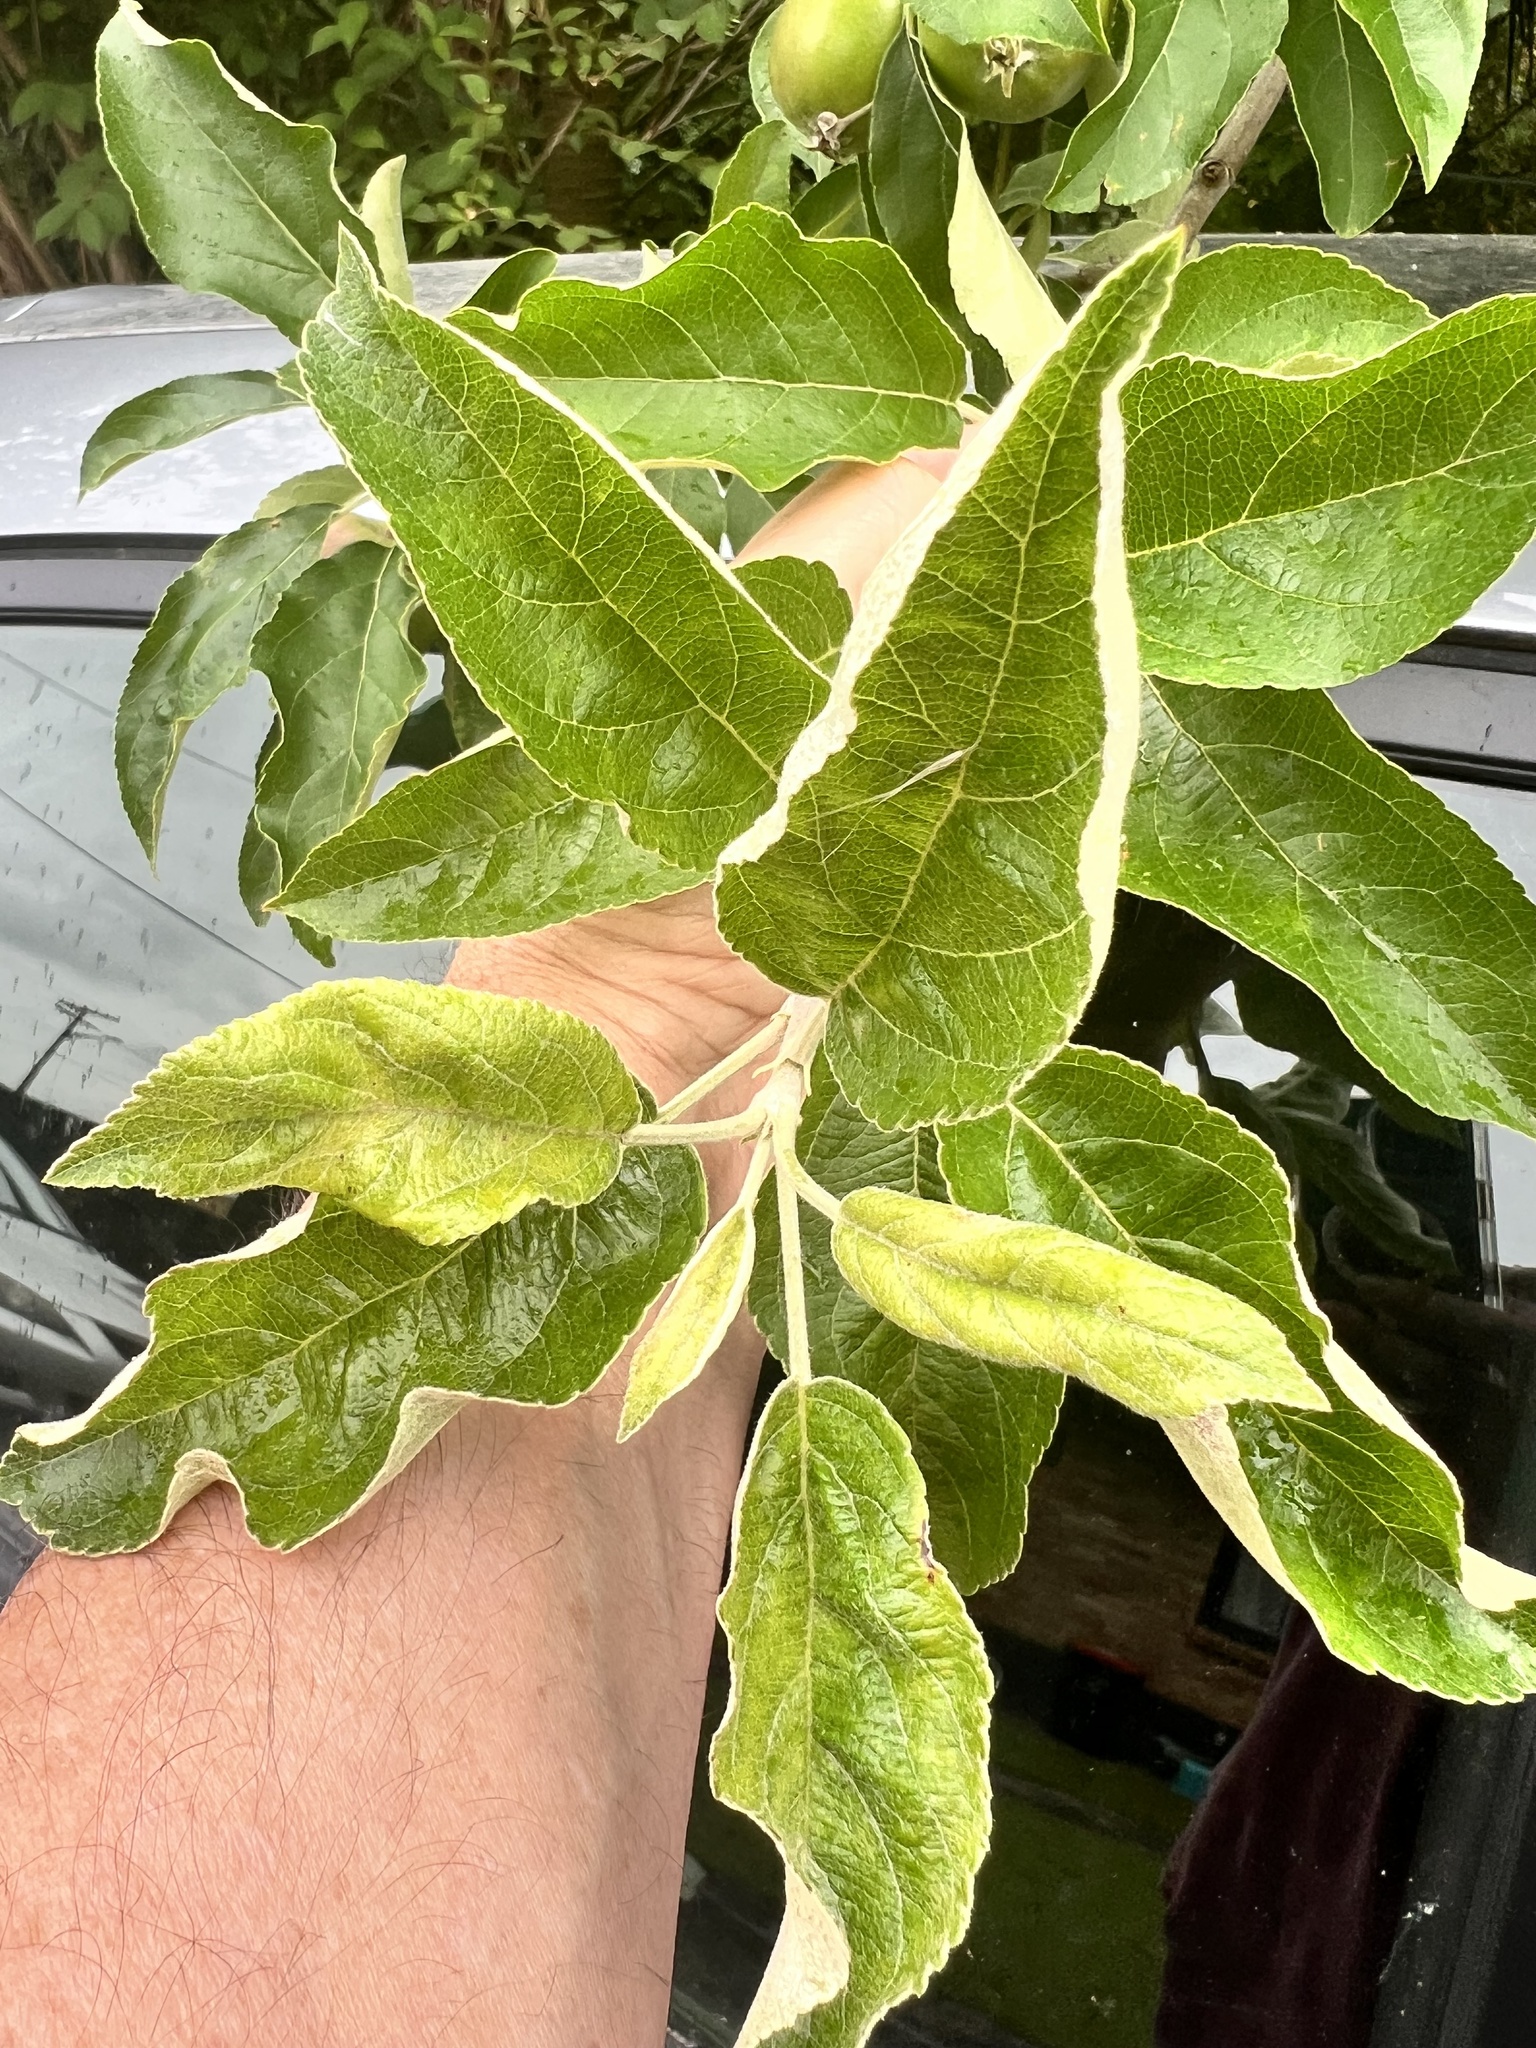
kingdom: Plantae
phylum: Tracheophyta
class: Magnoliopsida
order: Rosales
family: Rosaceae
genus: Malus
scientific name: Malus domestica
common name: Apple
